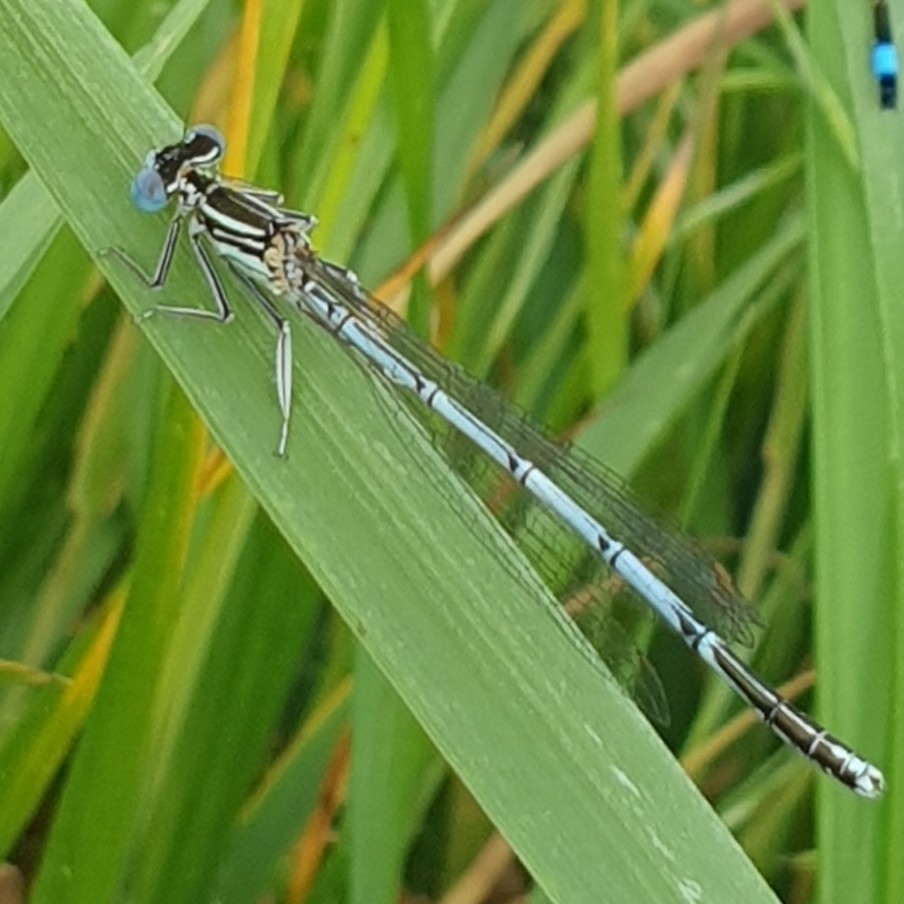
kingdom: Animalia
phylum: Arthropoda
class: Insecta
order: Odonata
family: Platycnemididae
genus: Platycnemis
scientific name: Platycnemis pennipes
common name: White-legged damselfly
